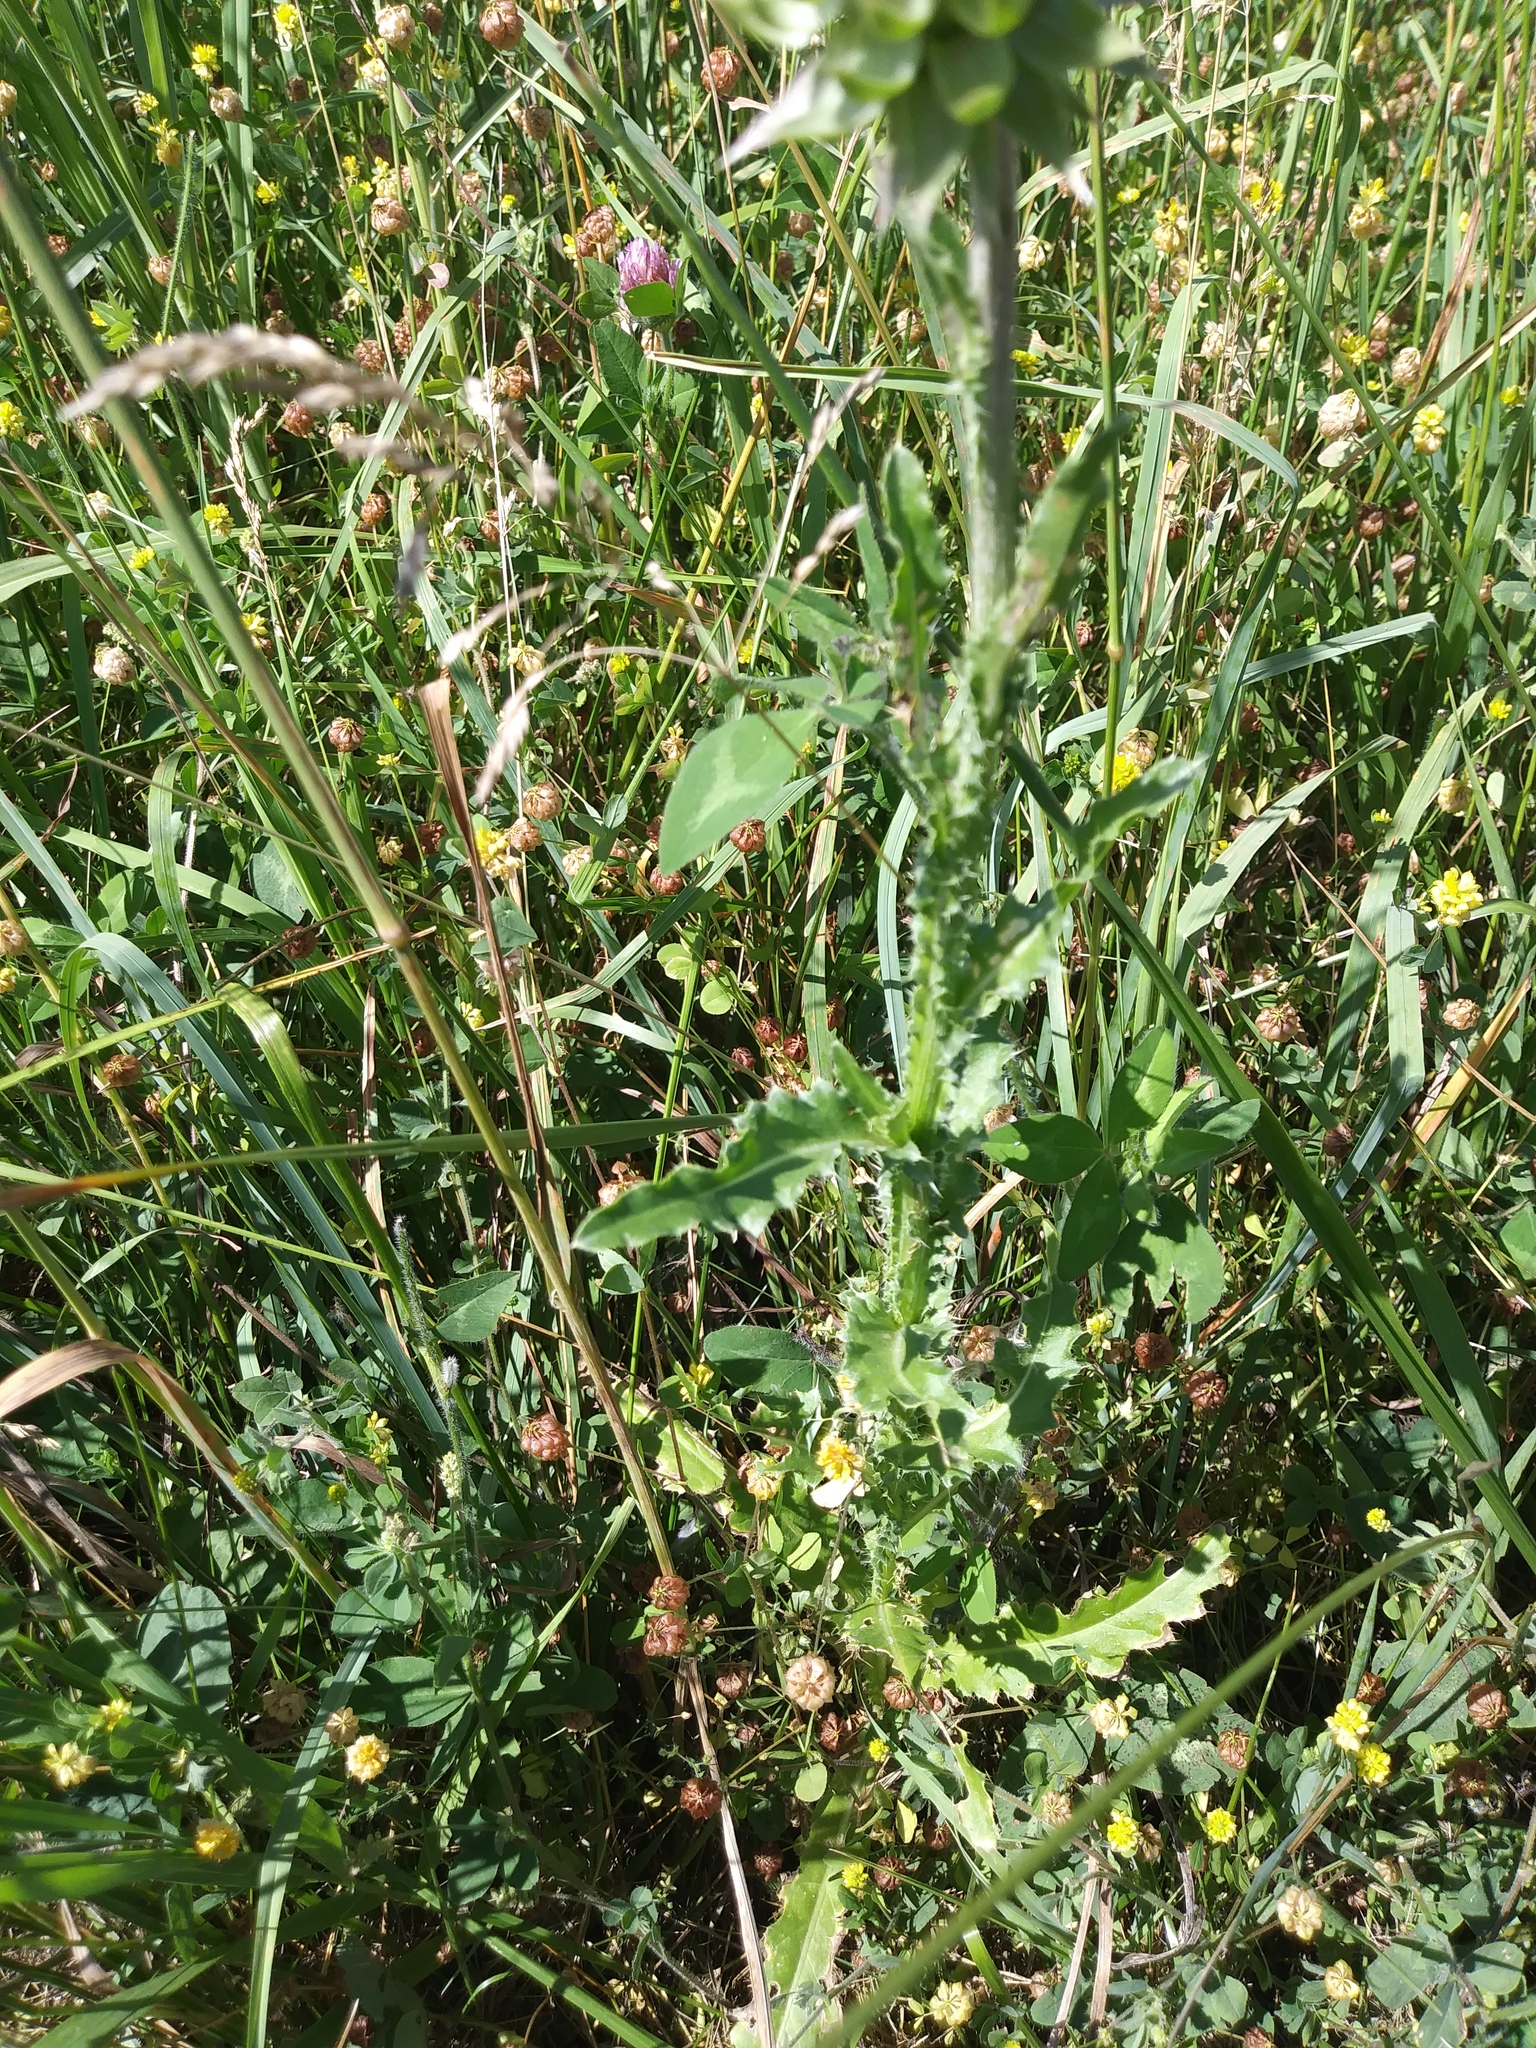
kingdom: Plantae
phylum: Tracheophyta
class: Magnoliopsida
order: Asterales
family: Asteraceae
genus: Carduus
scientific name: Carduus nutans
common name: Musk thistle
